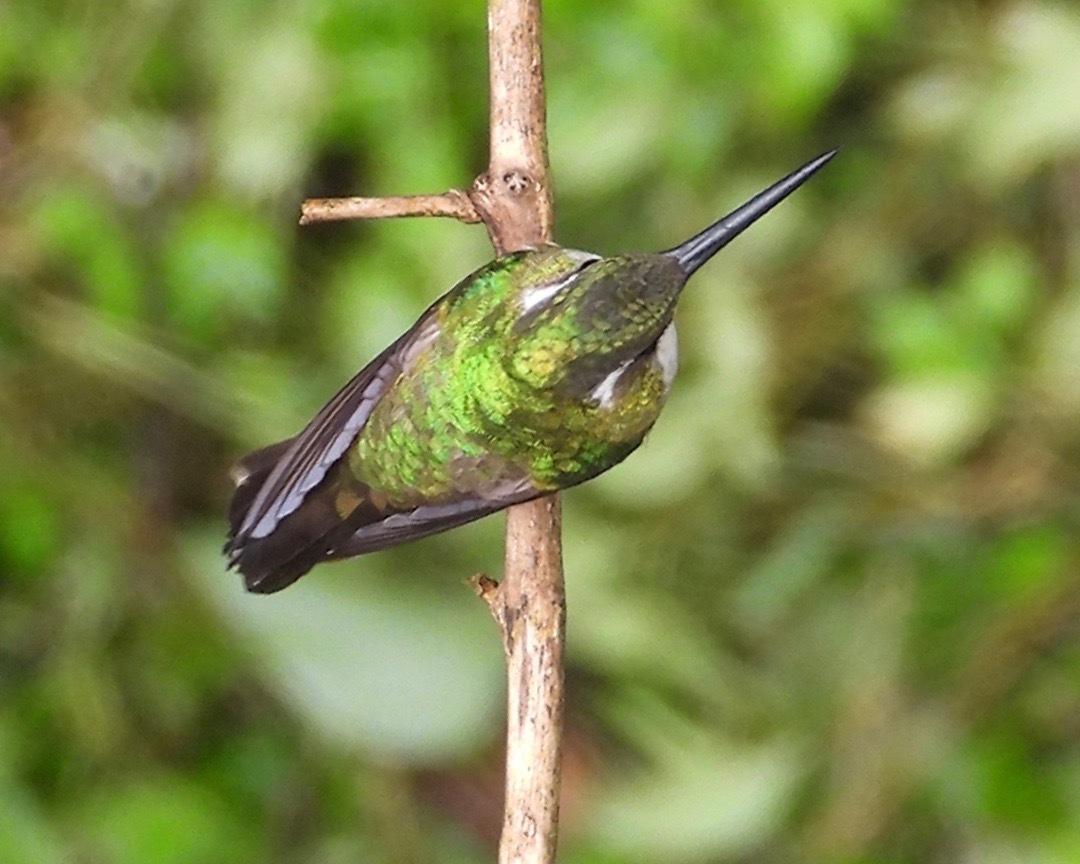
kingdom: Animalia
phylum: Chordata
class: Aves
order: Apodiformes
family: Trochilidae
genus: Lampornis
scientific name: Lampornis viridipallens
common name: Green-throated mountain-gem
